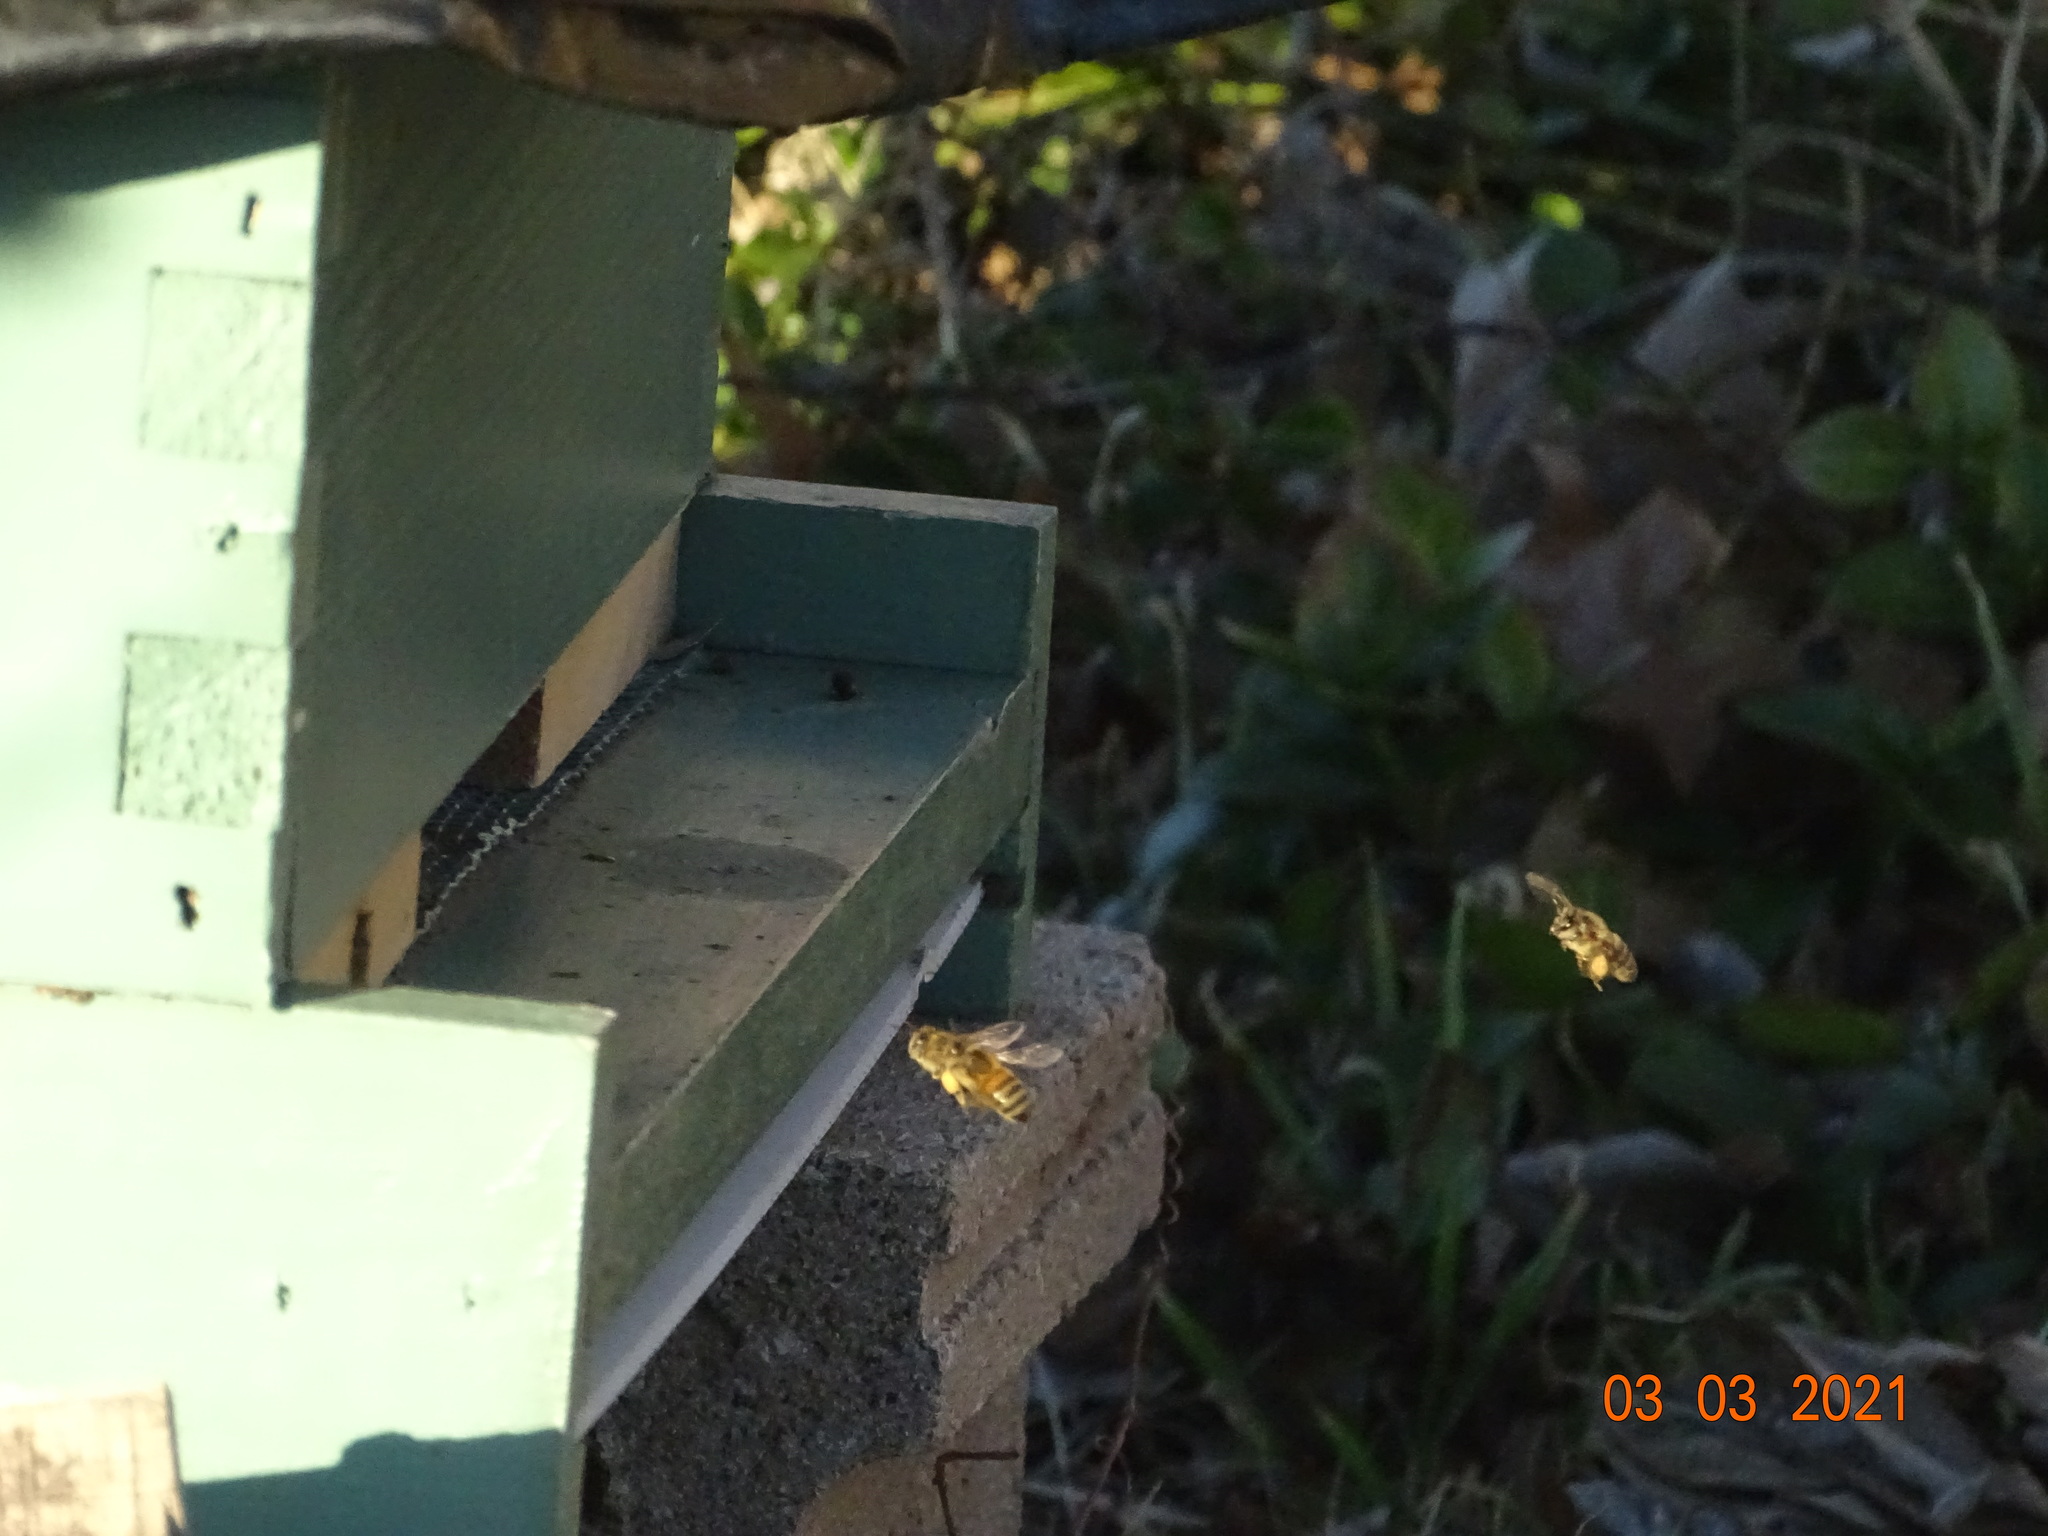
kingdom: Animalia
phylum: Arthropoda
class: Insecta
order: Hymenoptera
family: Apidae
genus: Apis
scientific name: Apis mellifera
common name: Honey bee
